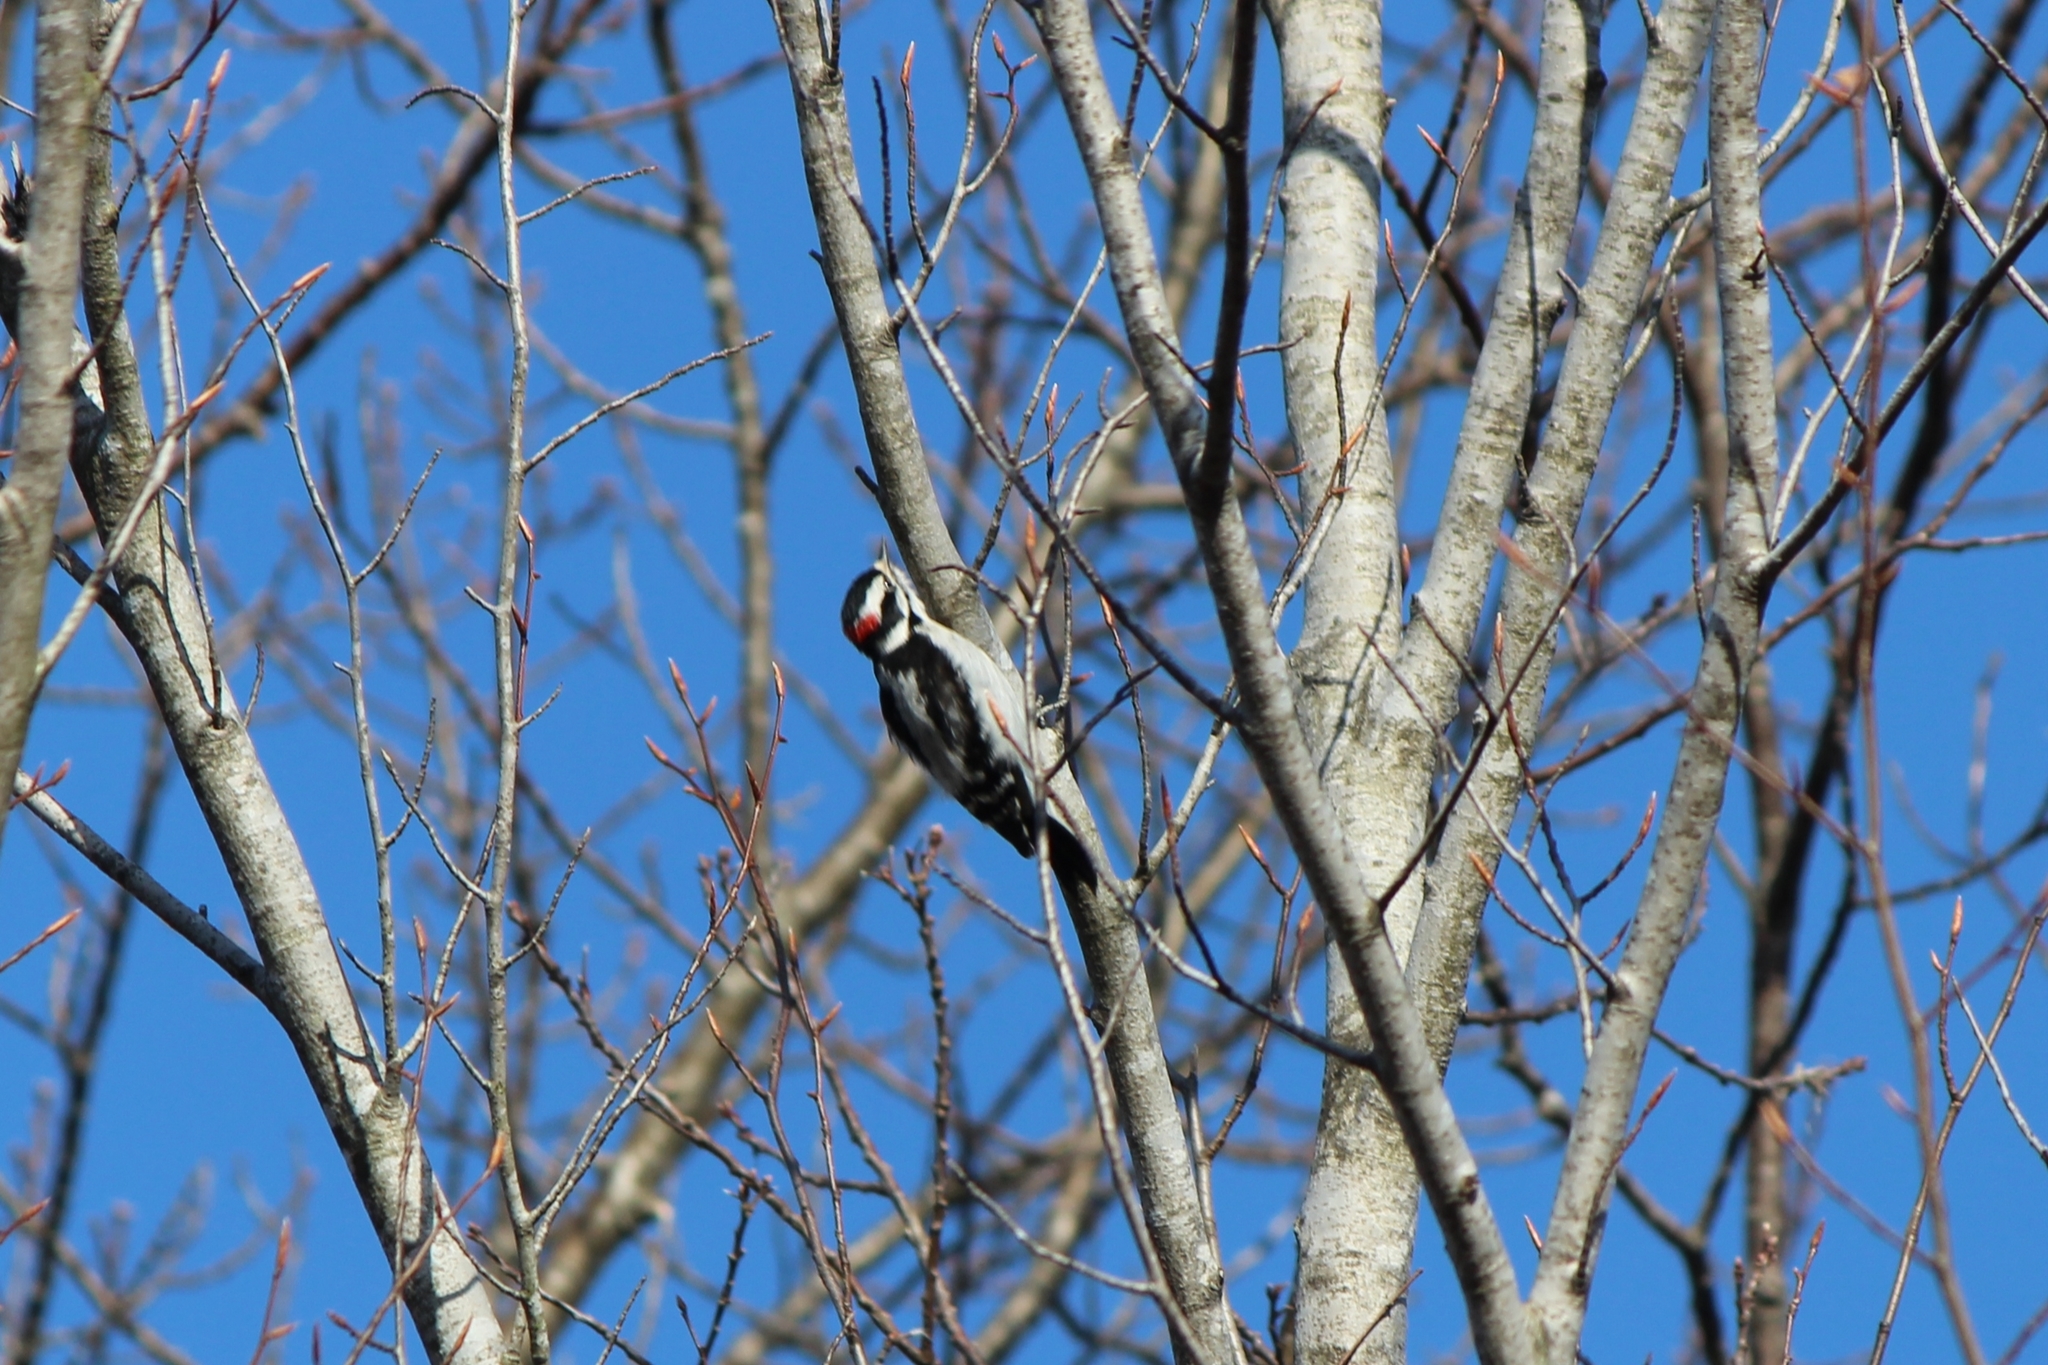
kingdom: Animalia
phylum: Chordata
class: Aves
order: Piciformes
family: Picidae
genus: Dryobates
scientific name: Dryobates pubescens
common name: Downy woodpecker
